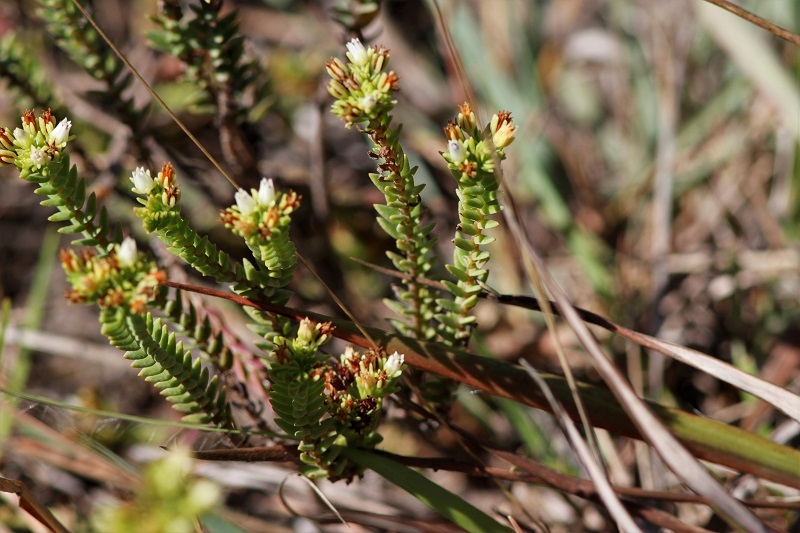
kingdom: Plantae
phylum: Tracheophyta
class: Magnoliopsida
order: Saxifragales
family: Crassulaceae
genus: Crassula
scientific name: Crassula ericoides
